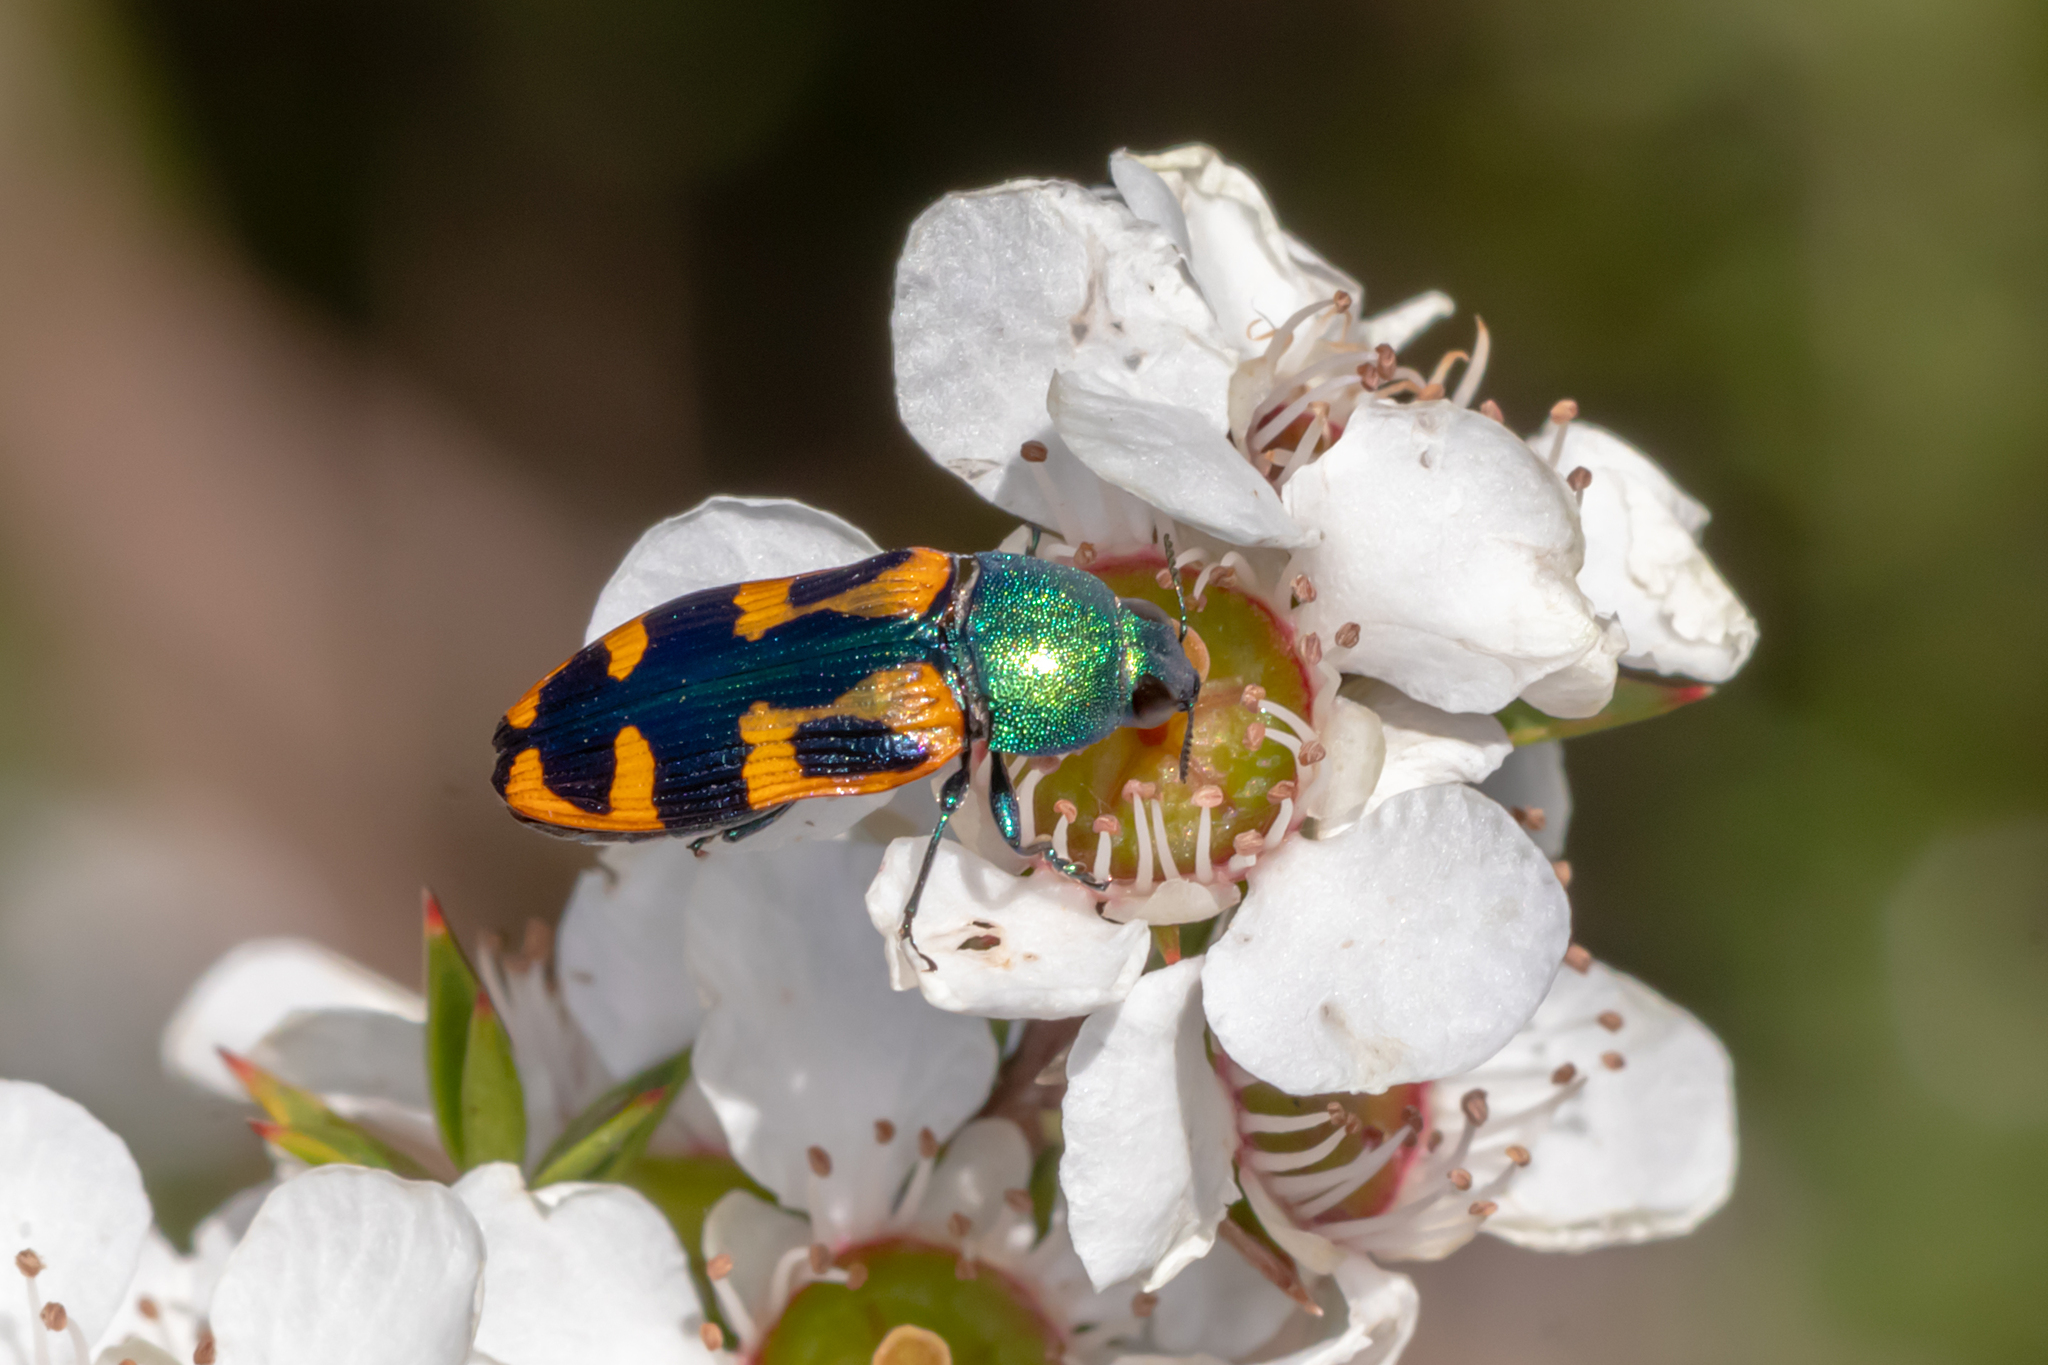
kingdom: Animalia
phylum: Arthropoda
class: Insecta
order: Coleoptera
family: Buprestidae
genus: Castiarina
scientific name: Castiarina scalaris
